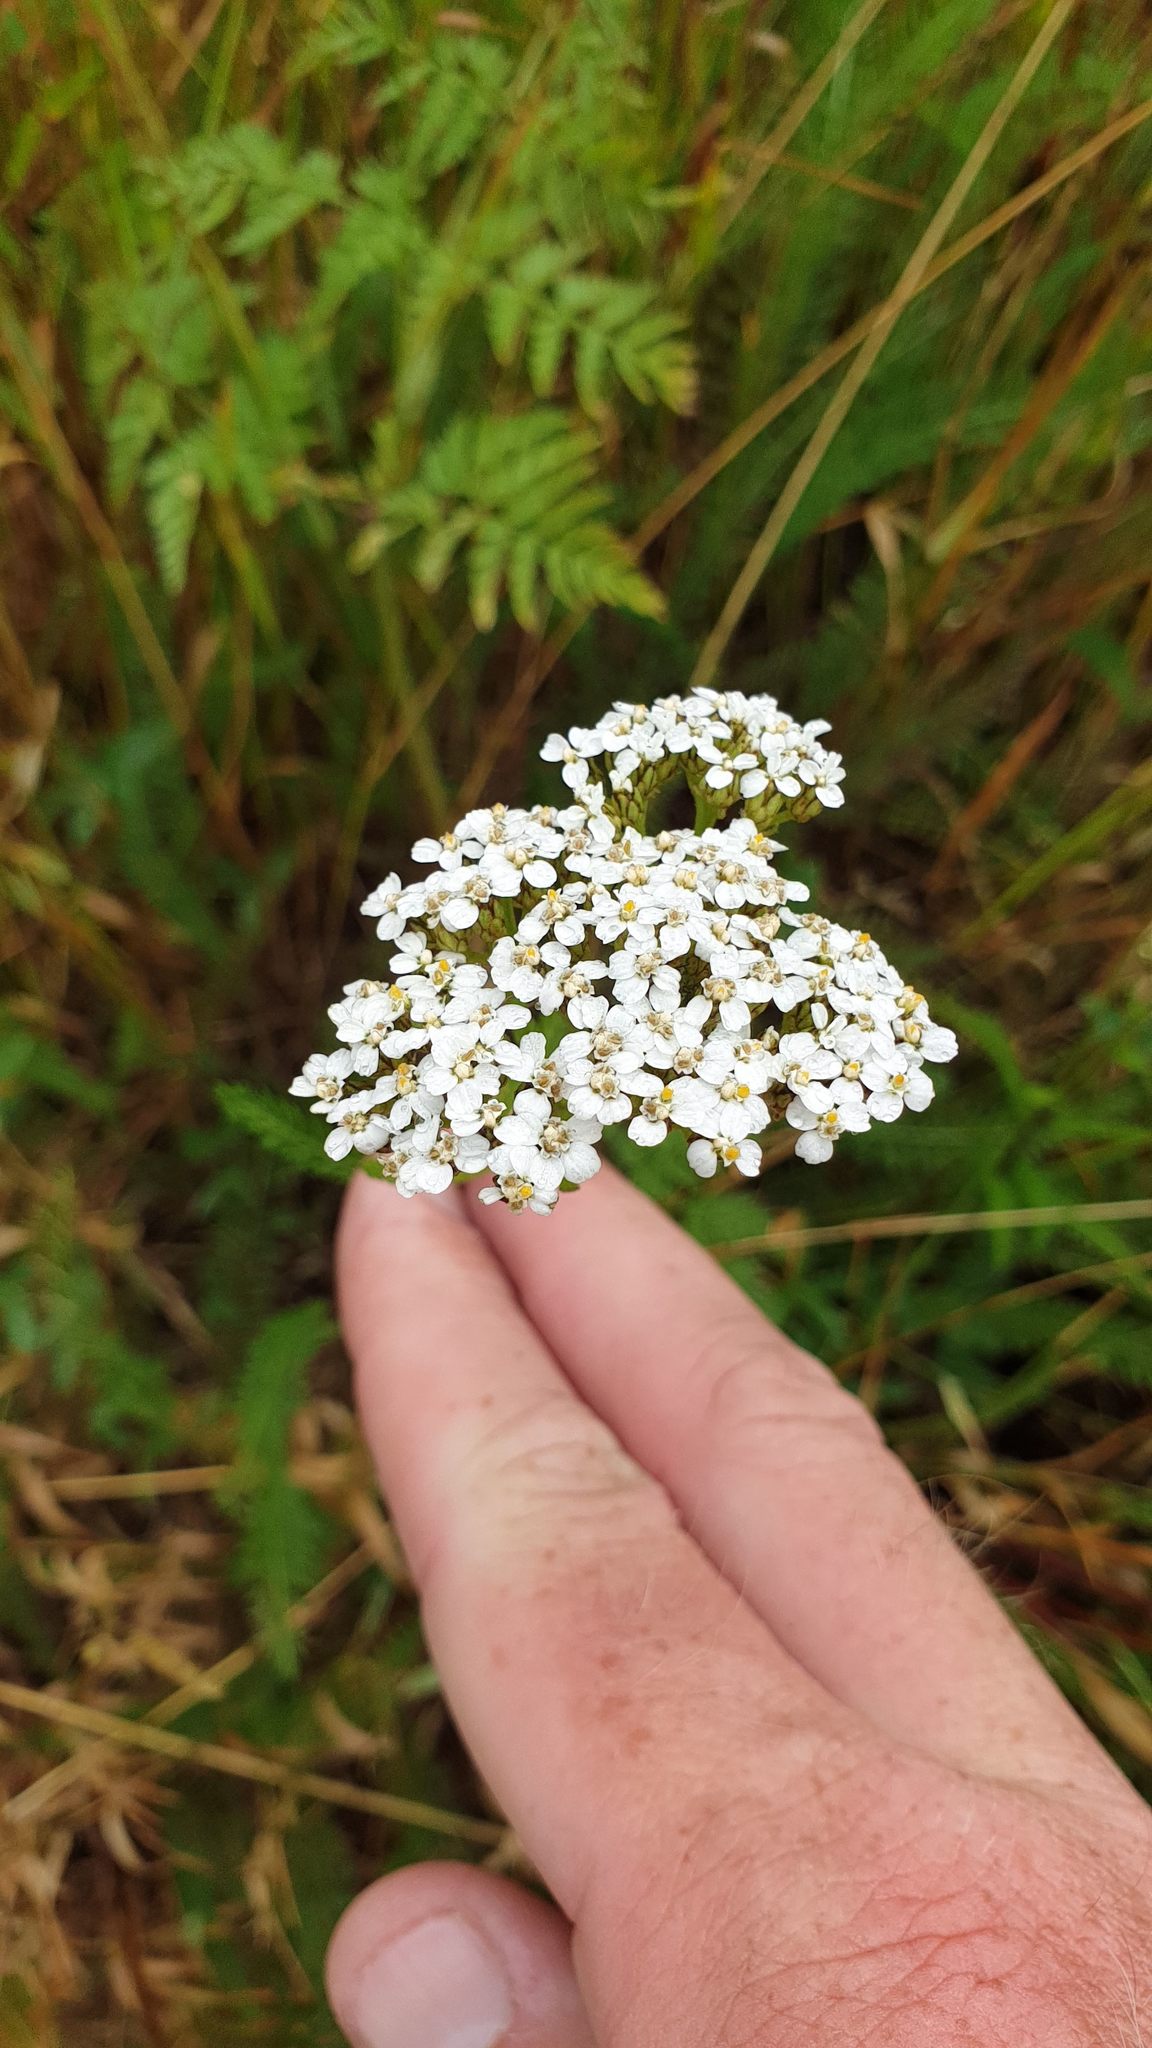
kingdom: Plantae
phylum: Tracheophyta
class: Magnoliopsida
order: Asterales
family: Asteraceae
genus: Achillea
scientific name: Achillea millefolium
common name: Yarrow
